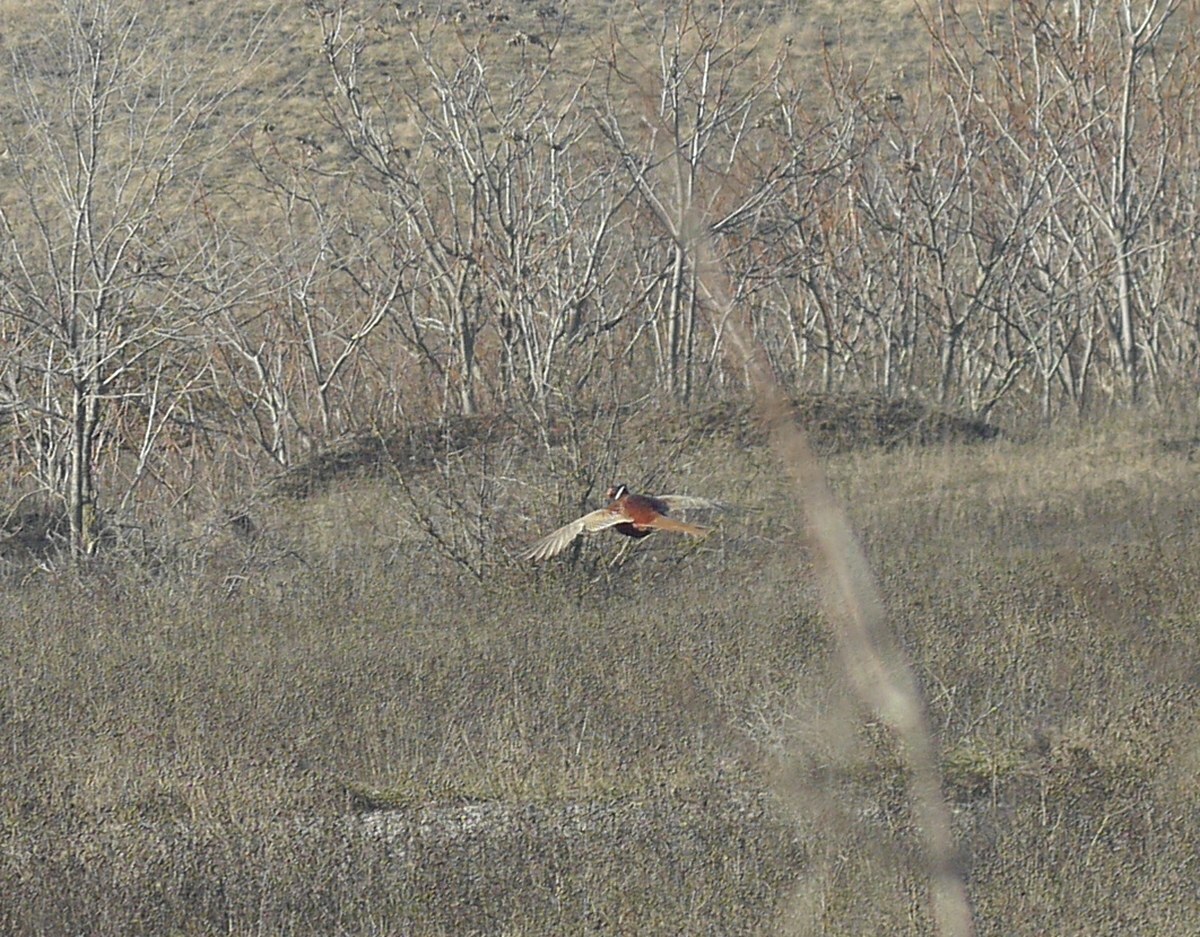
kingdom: Animalia
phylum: Chordata
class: Aves
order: Galliformes
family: Phasianidae
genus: Phasianus
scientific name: Phasianus colchicus
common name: Common pheasant
